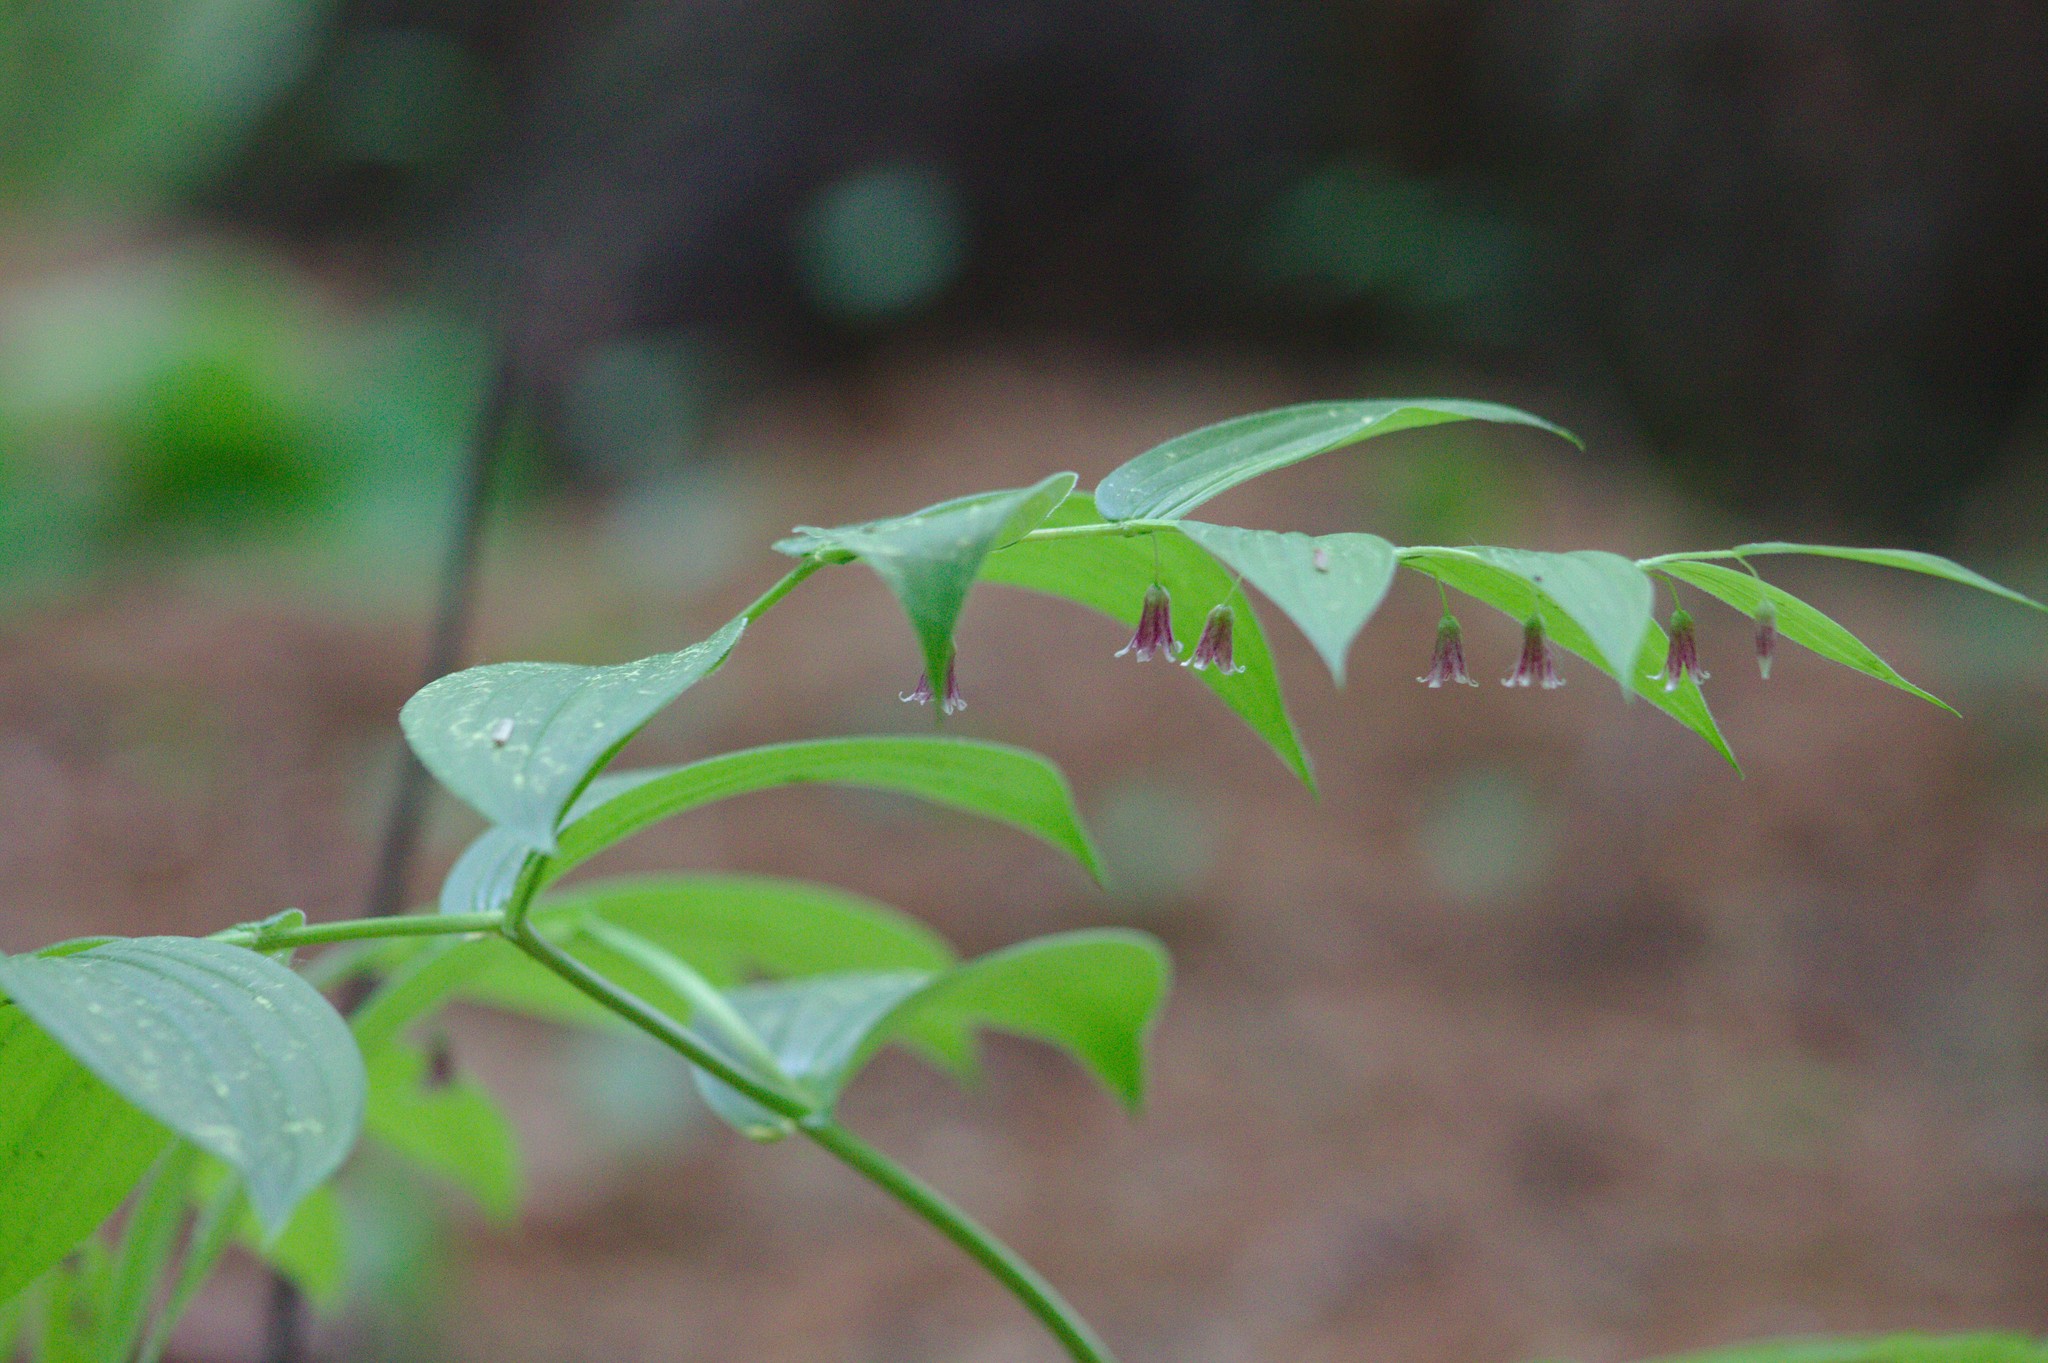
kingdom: Plantae
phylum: Tracheophyta
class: Liliopsida
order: Liliales
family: Liliaceae
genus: Streptopus
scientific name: Streptopus lanceolatus
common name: Rose mandarin
